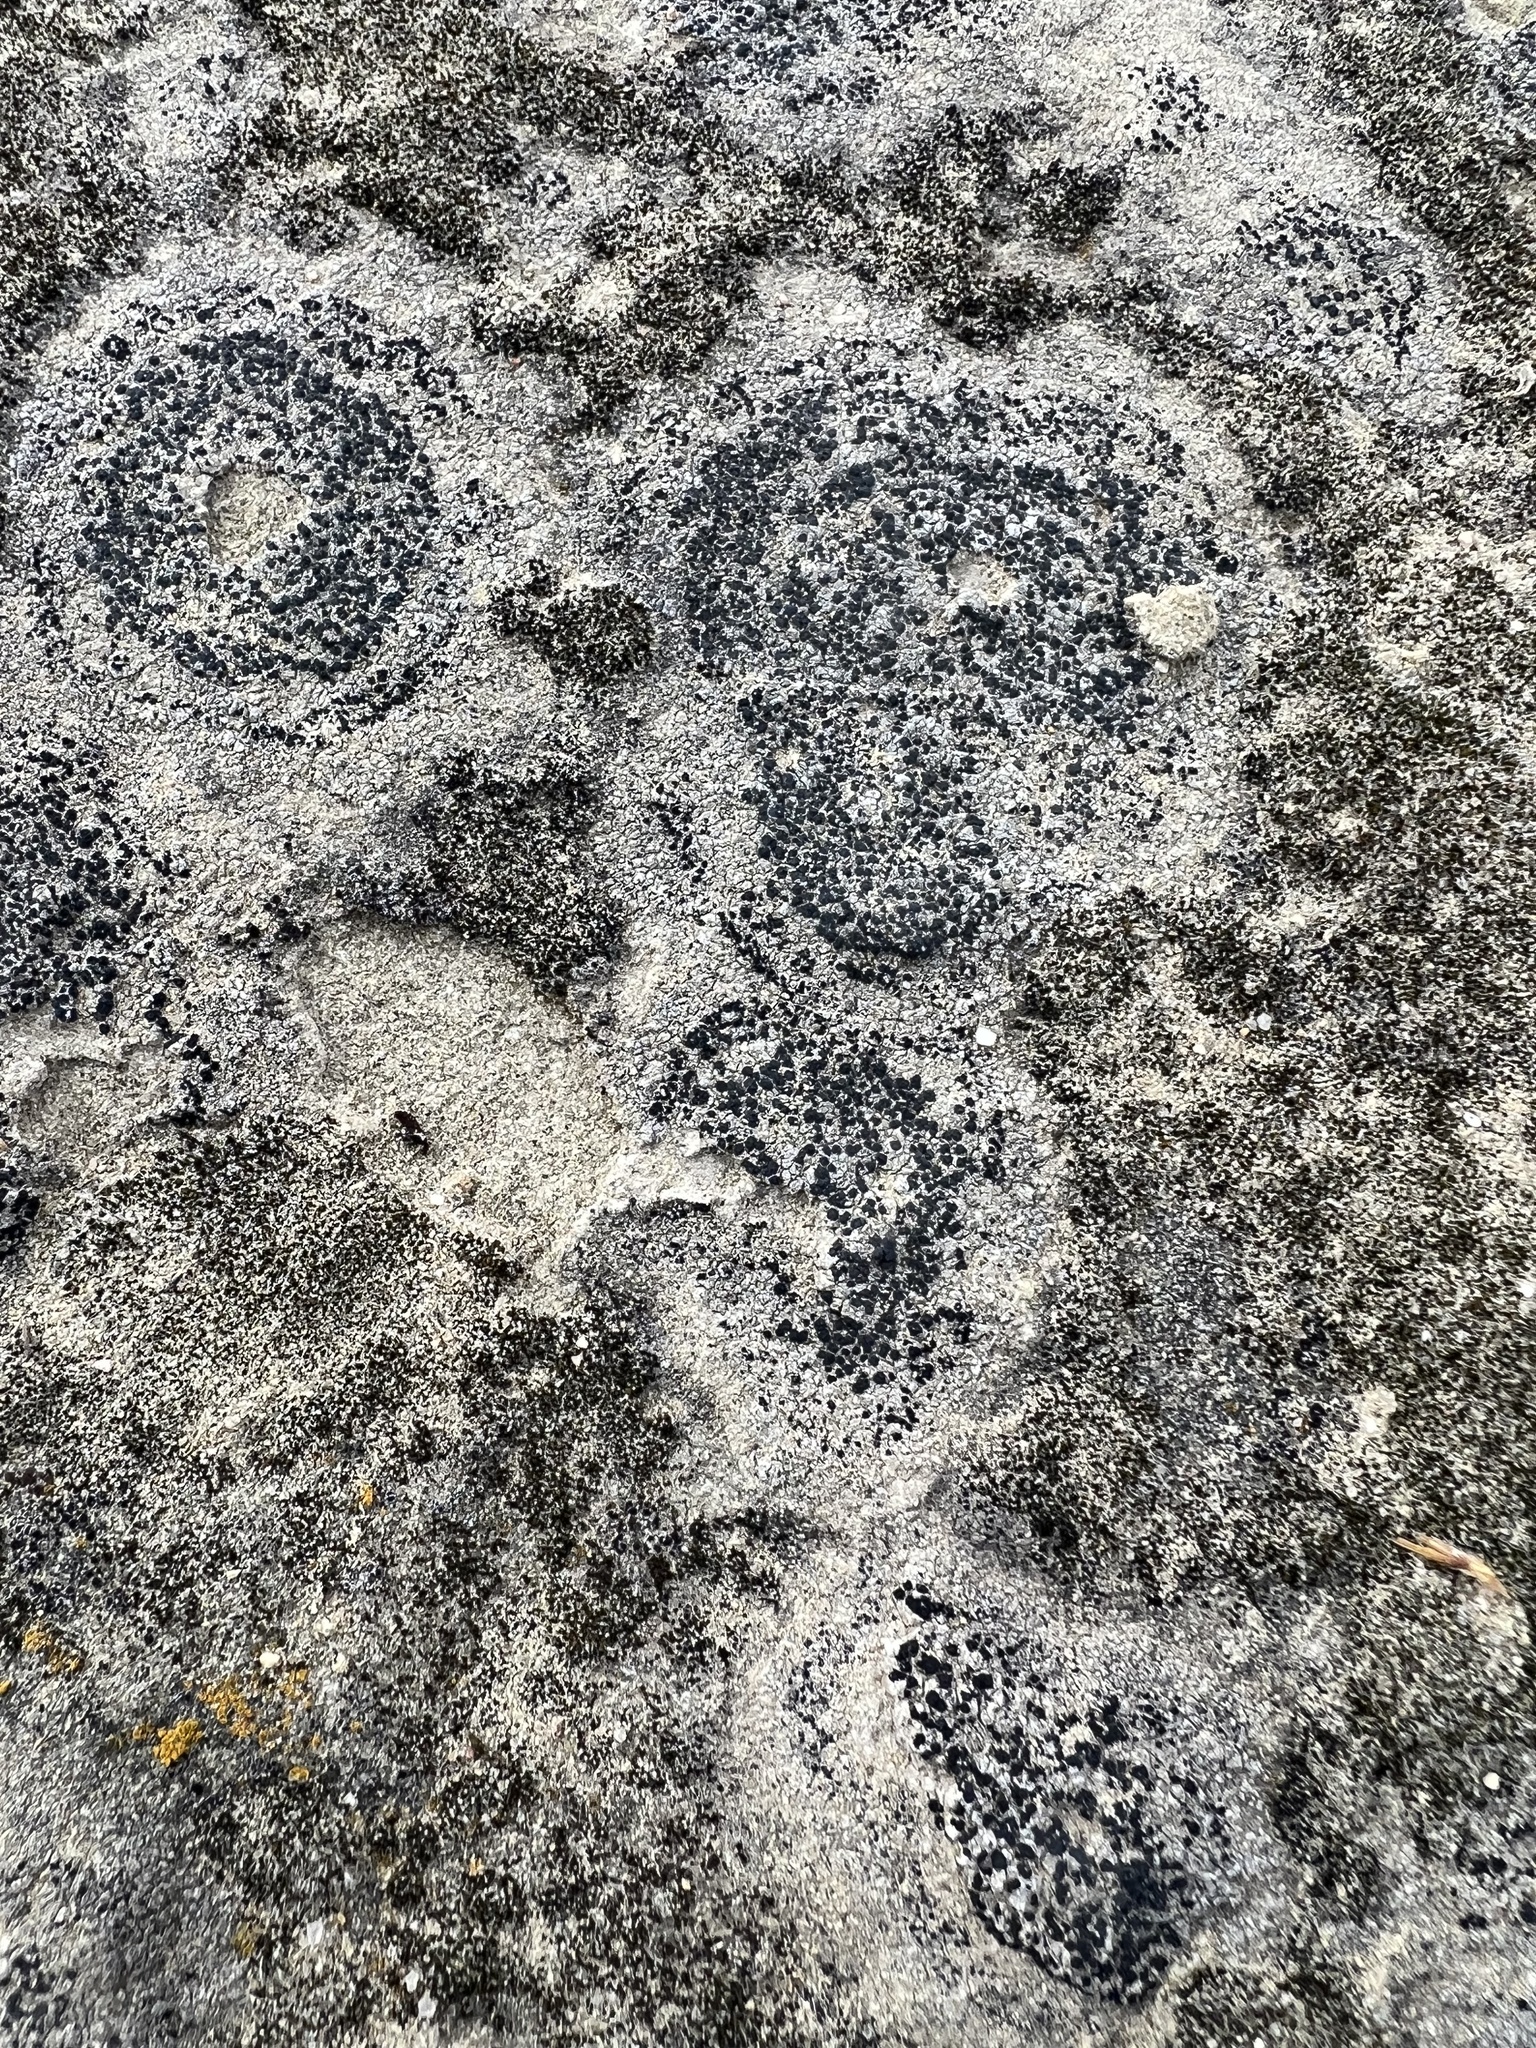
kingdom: Fungi
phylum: Ascomycota
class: Lecanoromycetes
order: Lecanorales
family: Lecanoraceae
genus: Lecidella
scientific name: Lecidella patavina
